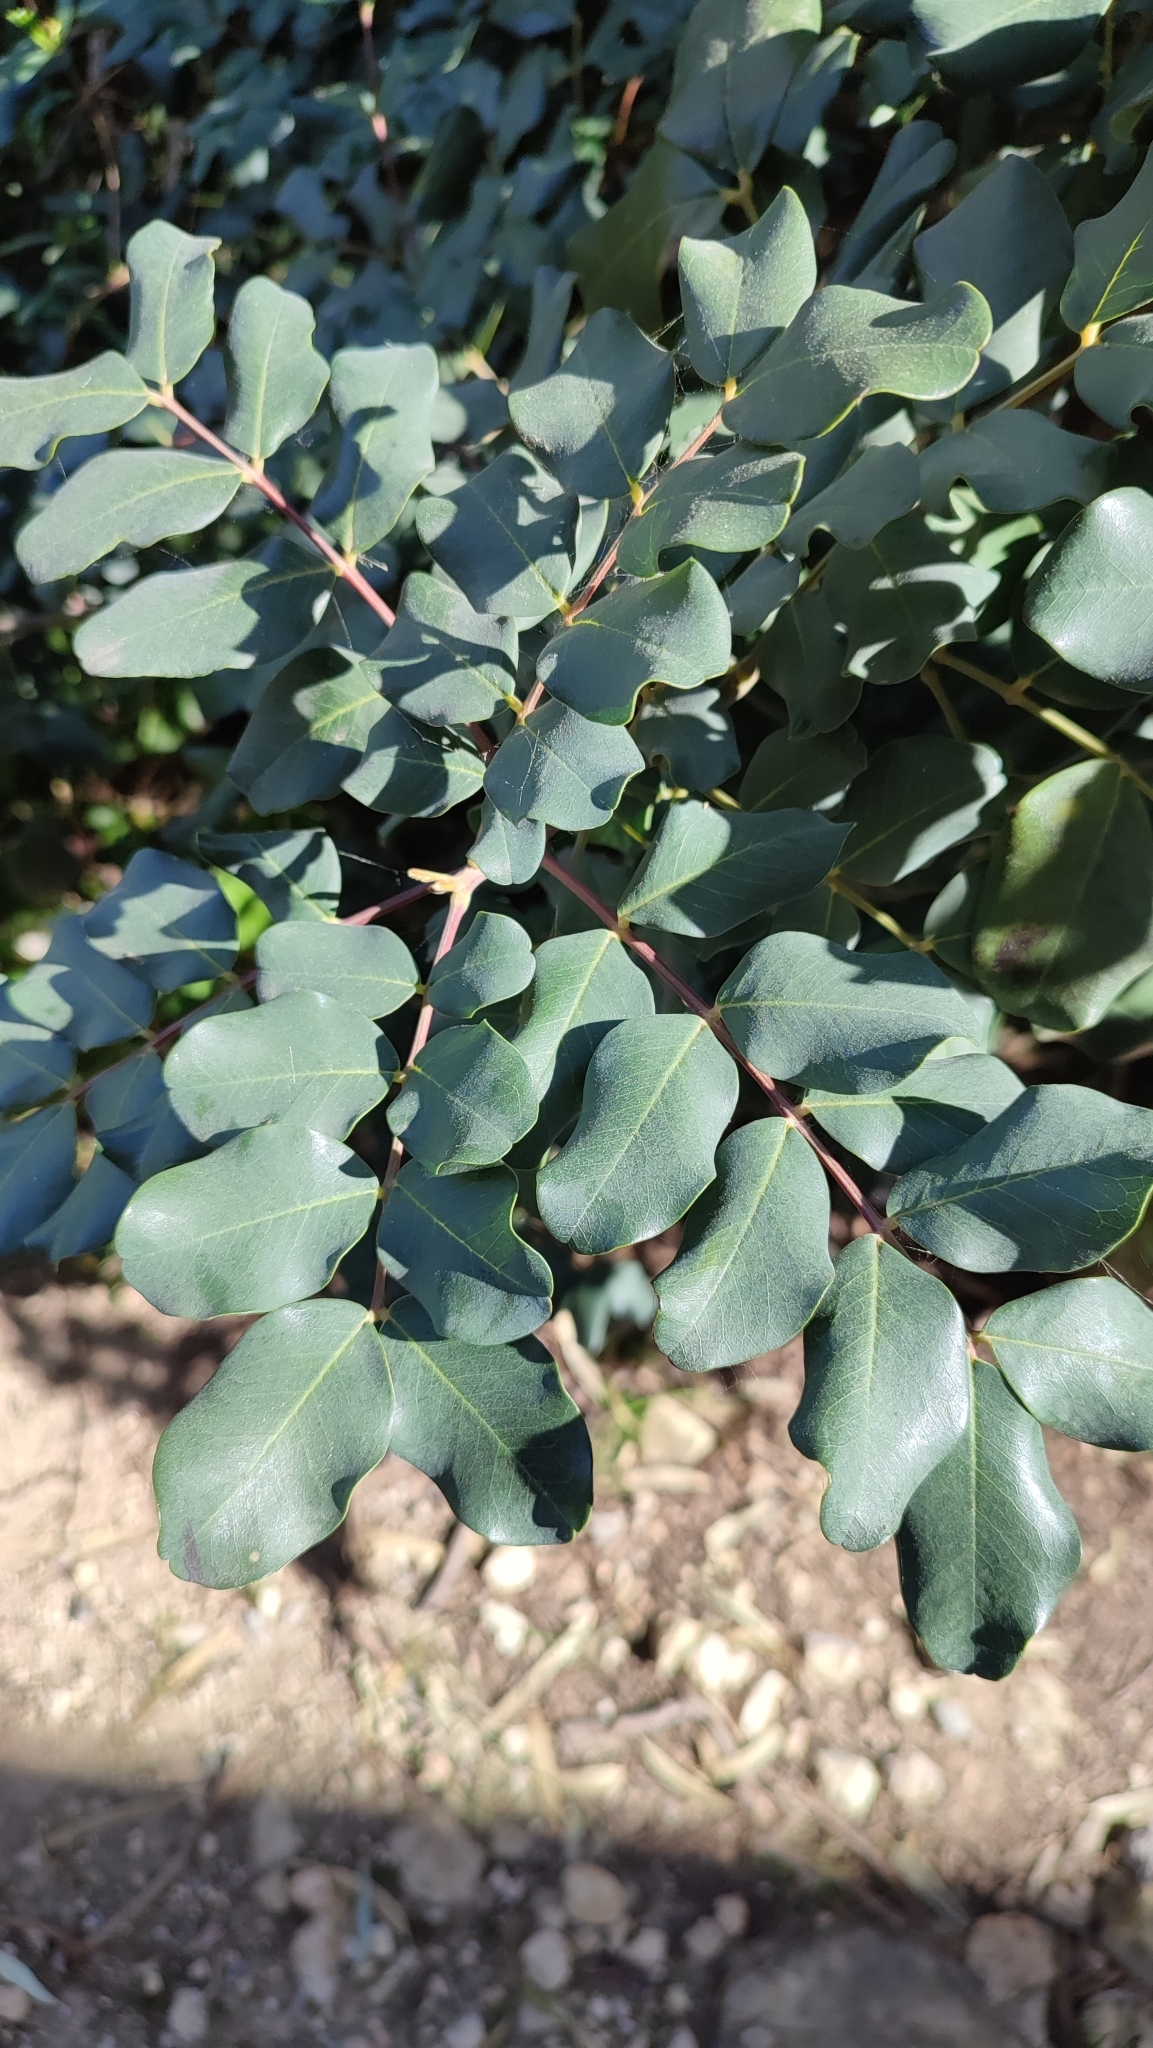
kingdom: Plantae
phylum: Tracheophyta
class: Magnoliopsida
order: Fabales
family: Fabaceae
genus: Ceratonia
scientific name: Ceratonia siliqua
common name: Carob
